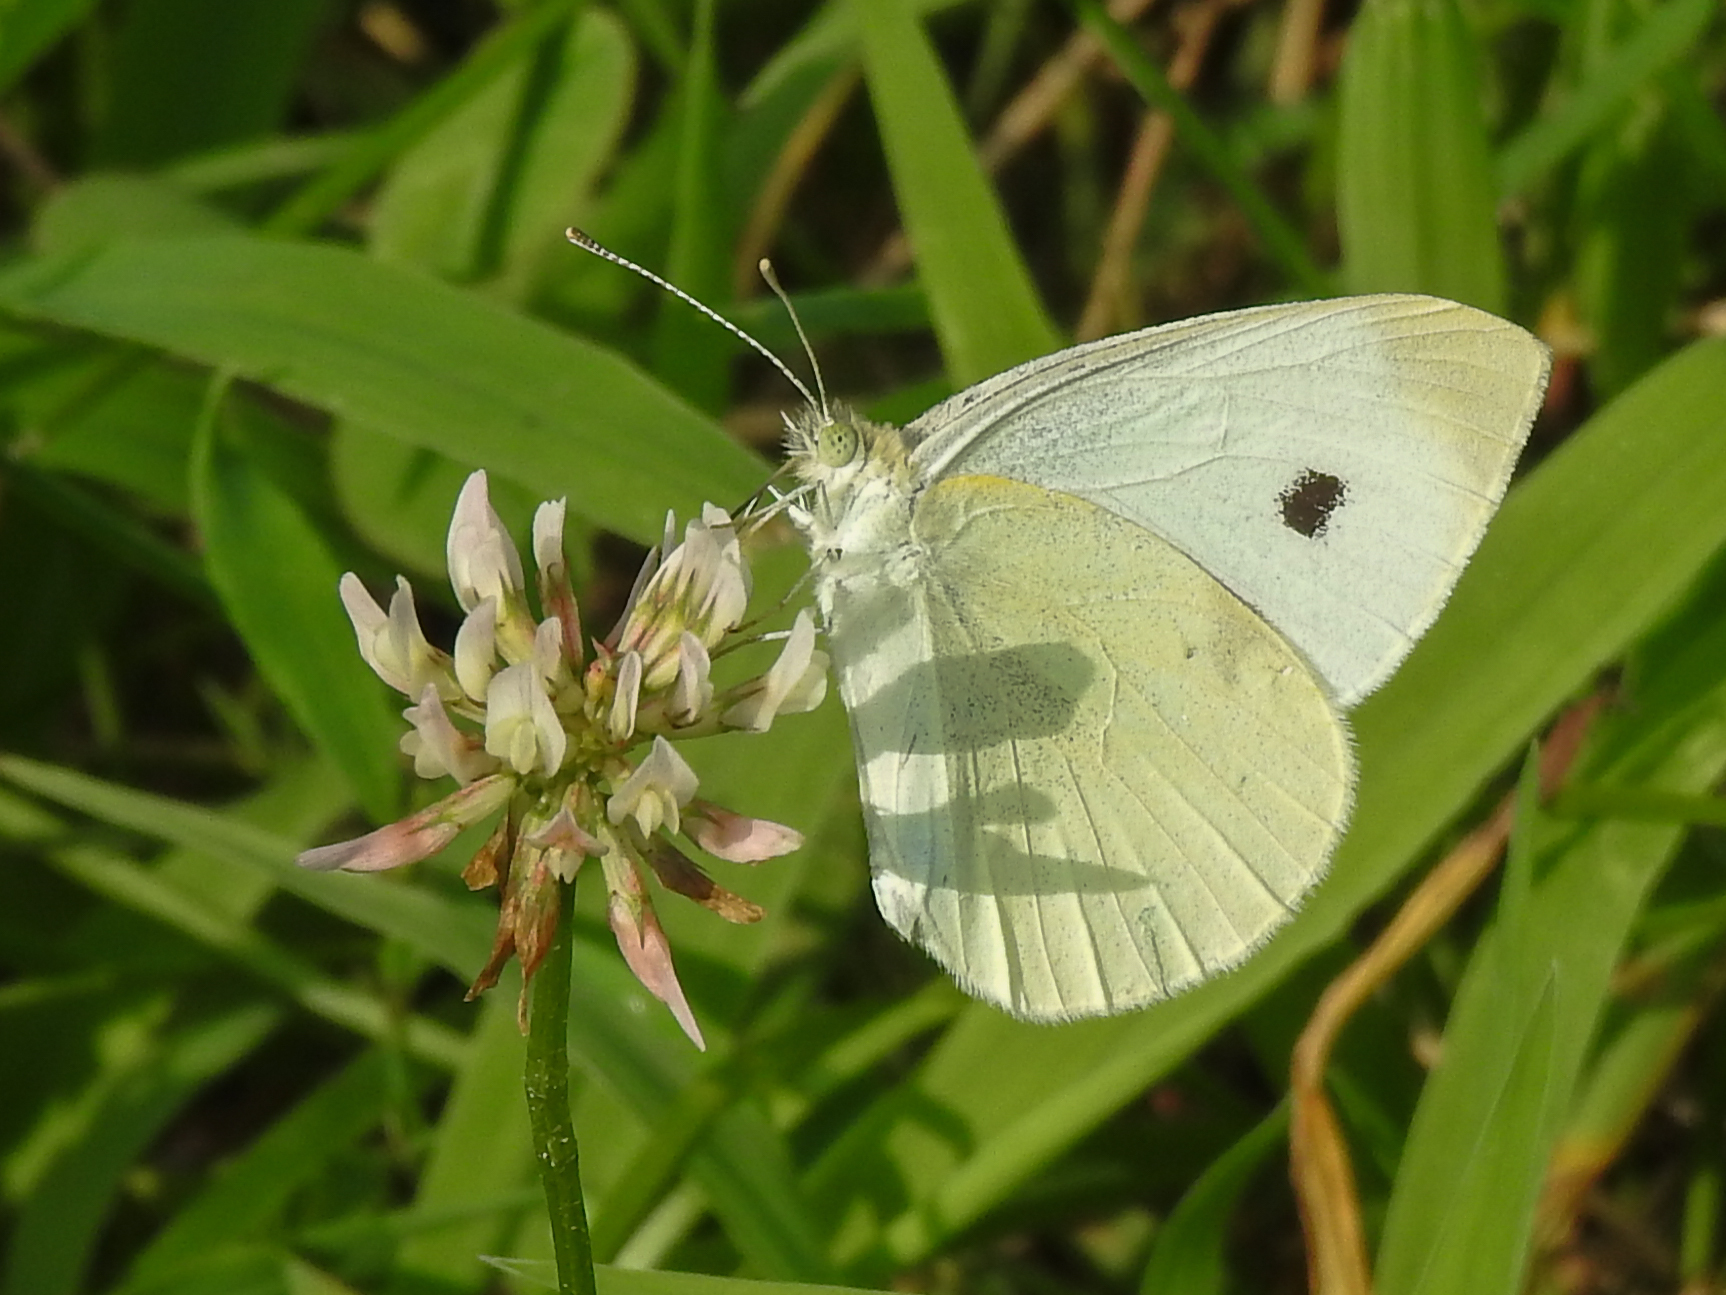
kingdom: Animalia
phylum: Arthropoda
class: Insecta
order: Lepidoptera
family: Pieridae
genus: Pieris
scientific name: Pieris rapae
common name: Small white
